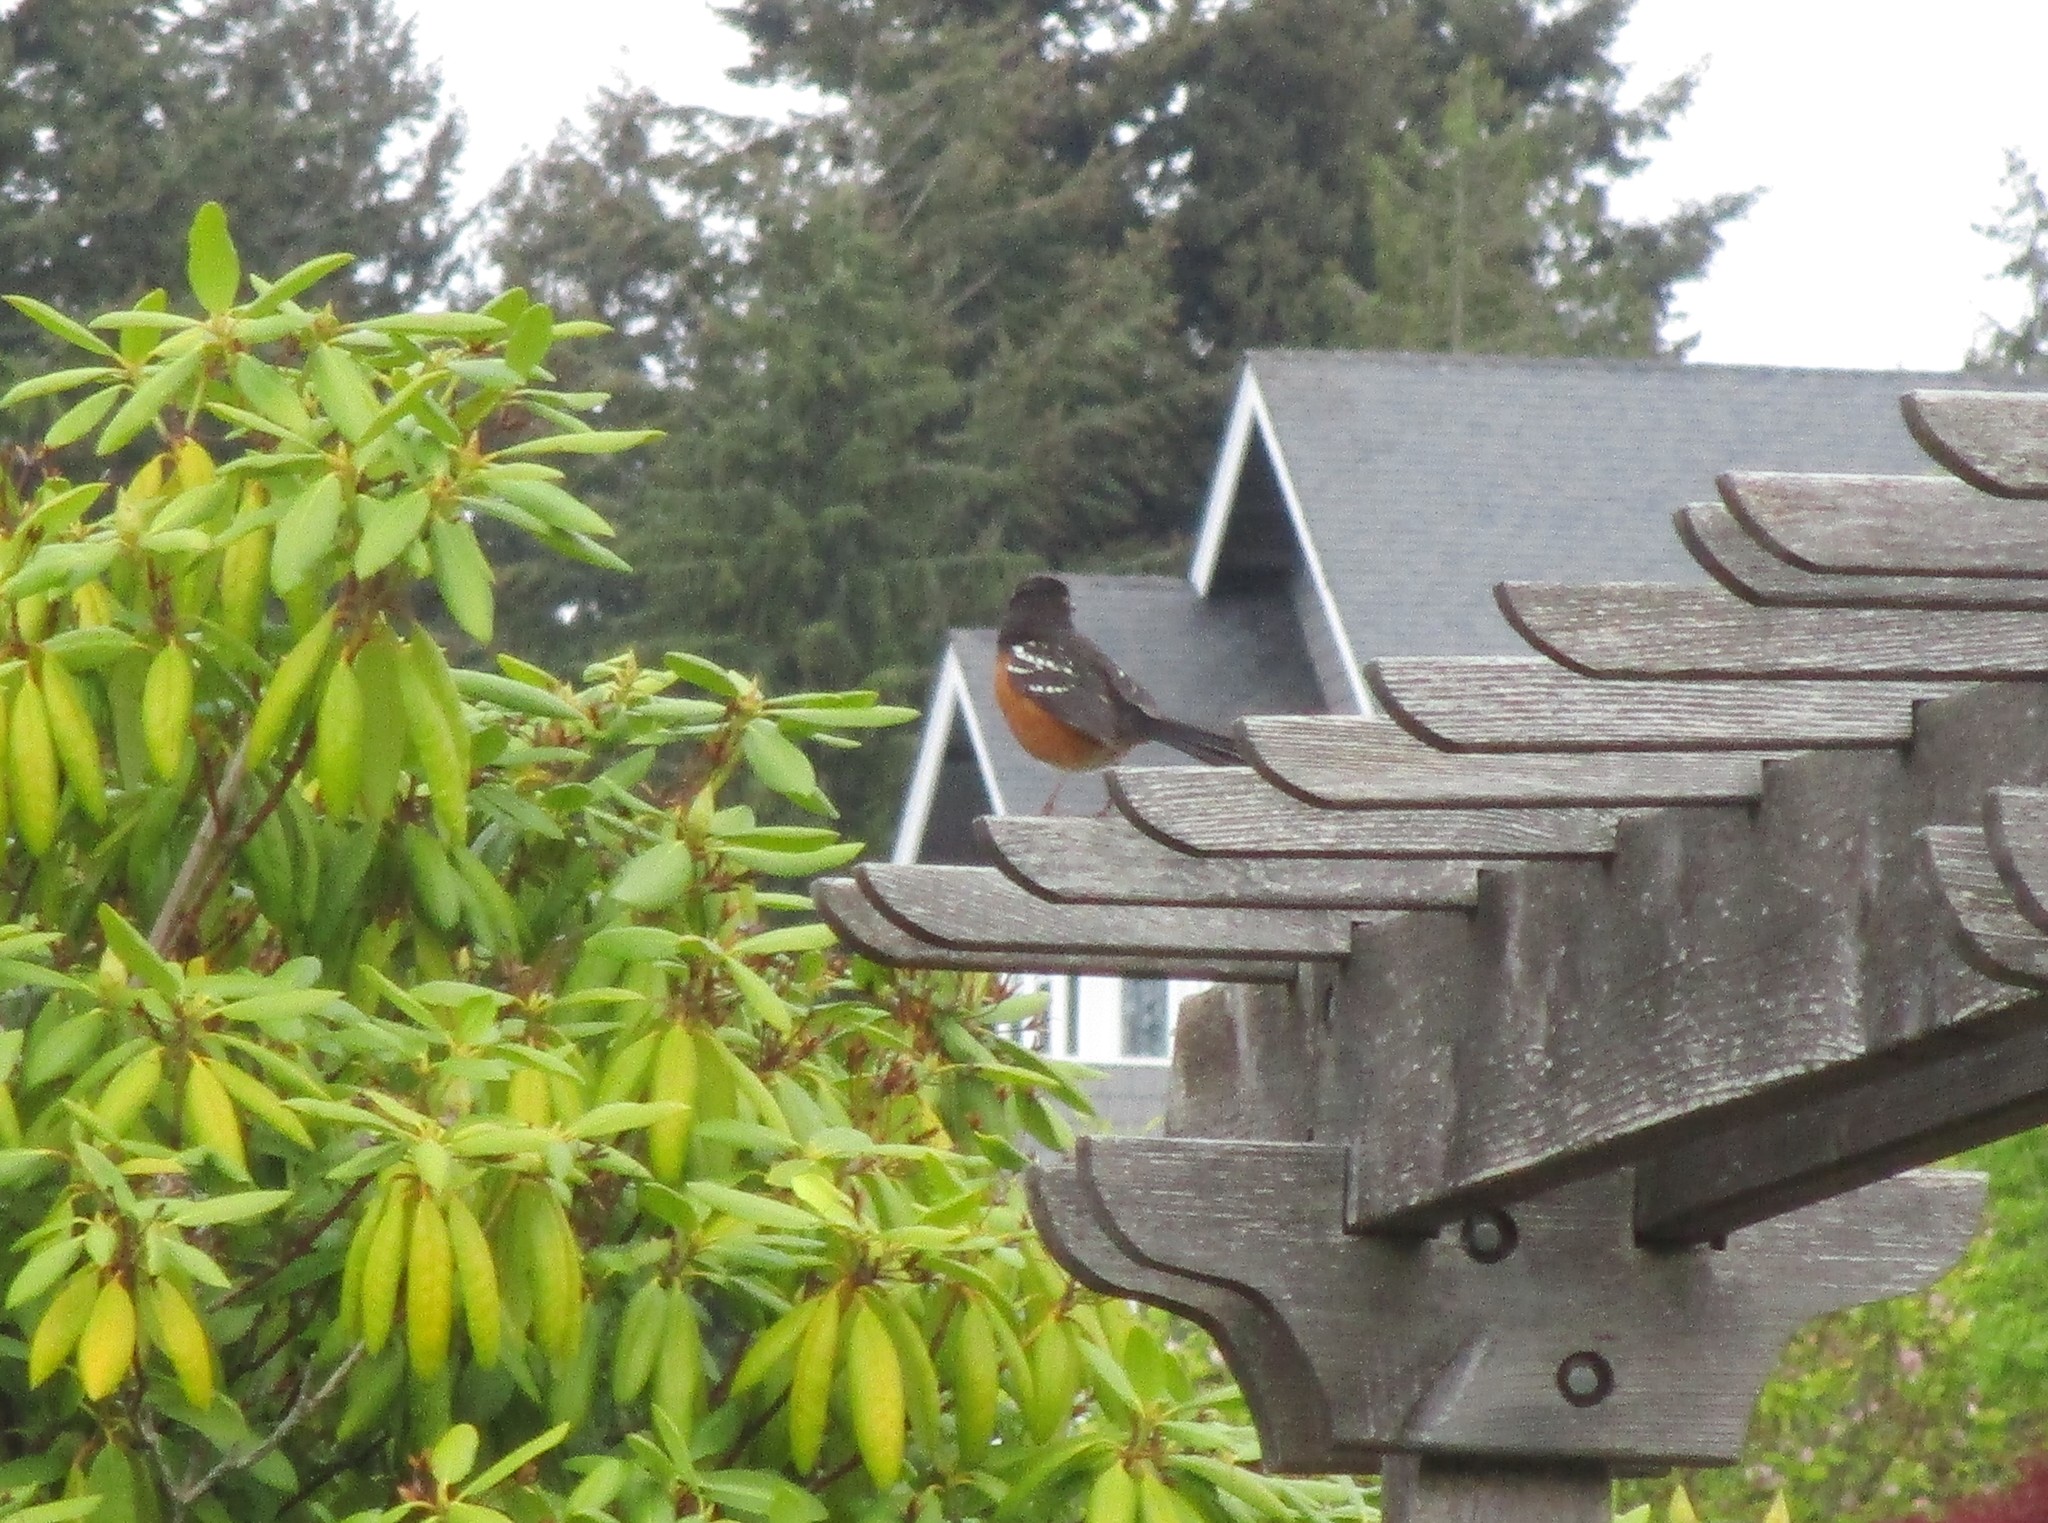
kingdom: Animalia
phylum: Chordata
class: Aves
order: Passeriformes
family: Passerellidae
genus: Pipilo
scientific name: Pipilo maculatus
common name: Spotted towhee
